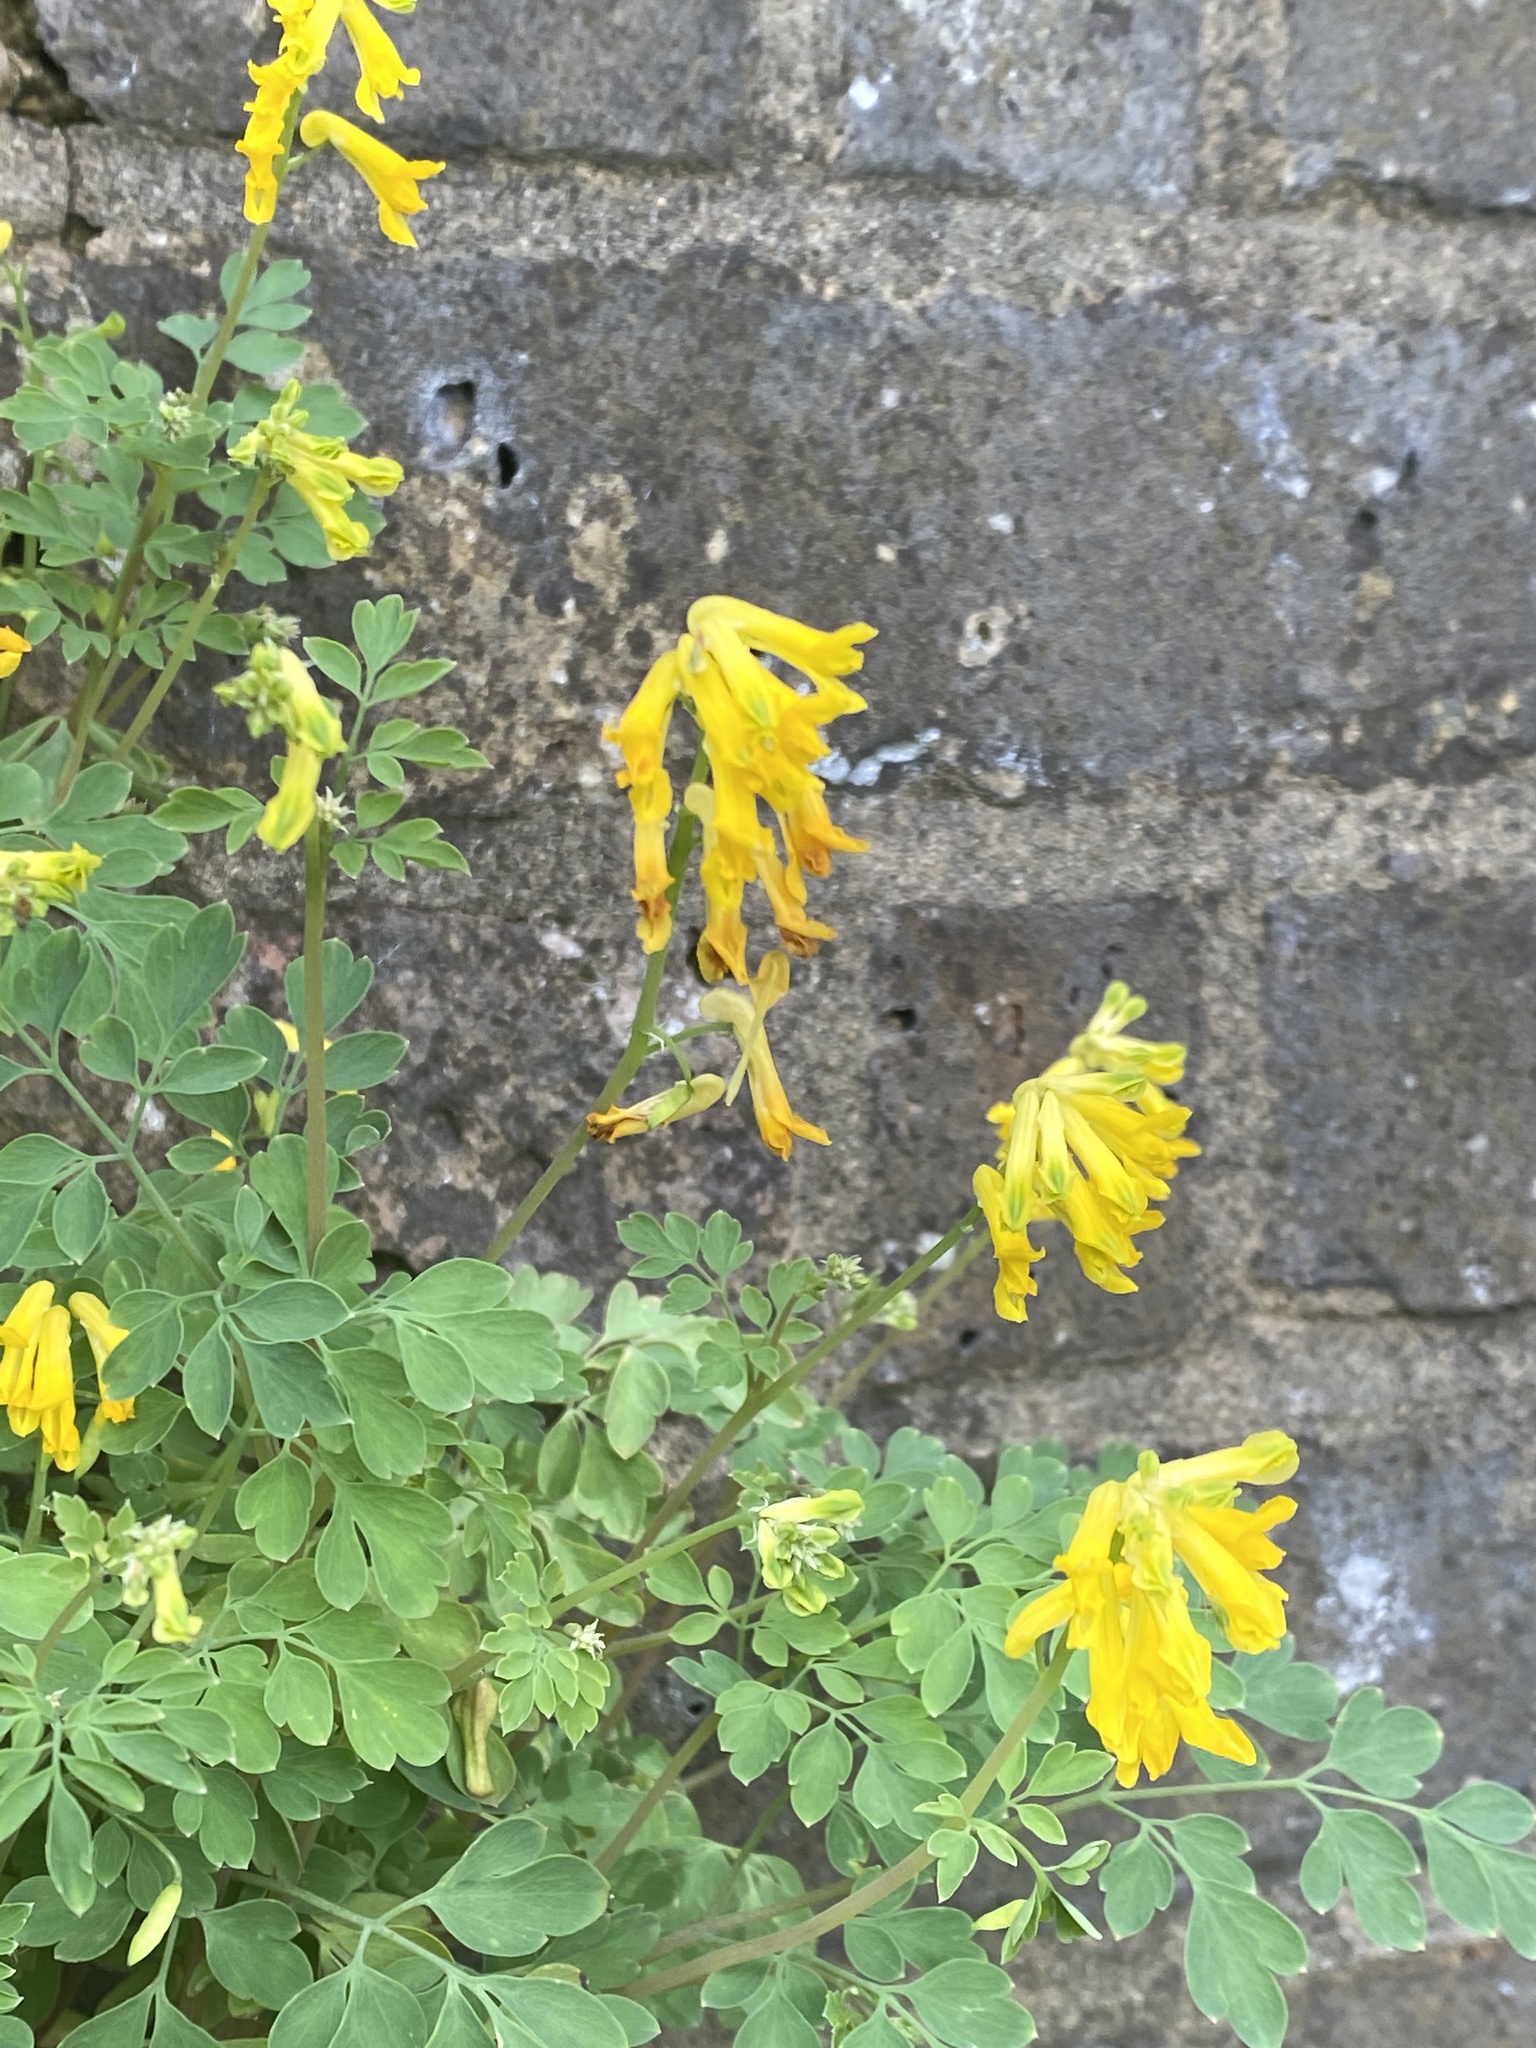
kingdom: Plantae
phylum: Tracheophyta
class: Magnoliopsida
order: Ranunculales
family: Papaveraceae
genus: Pseudofumaria
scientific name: Pseudofumaria lutea
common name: Yellow corydalis
